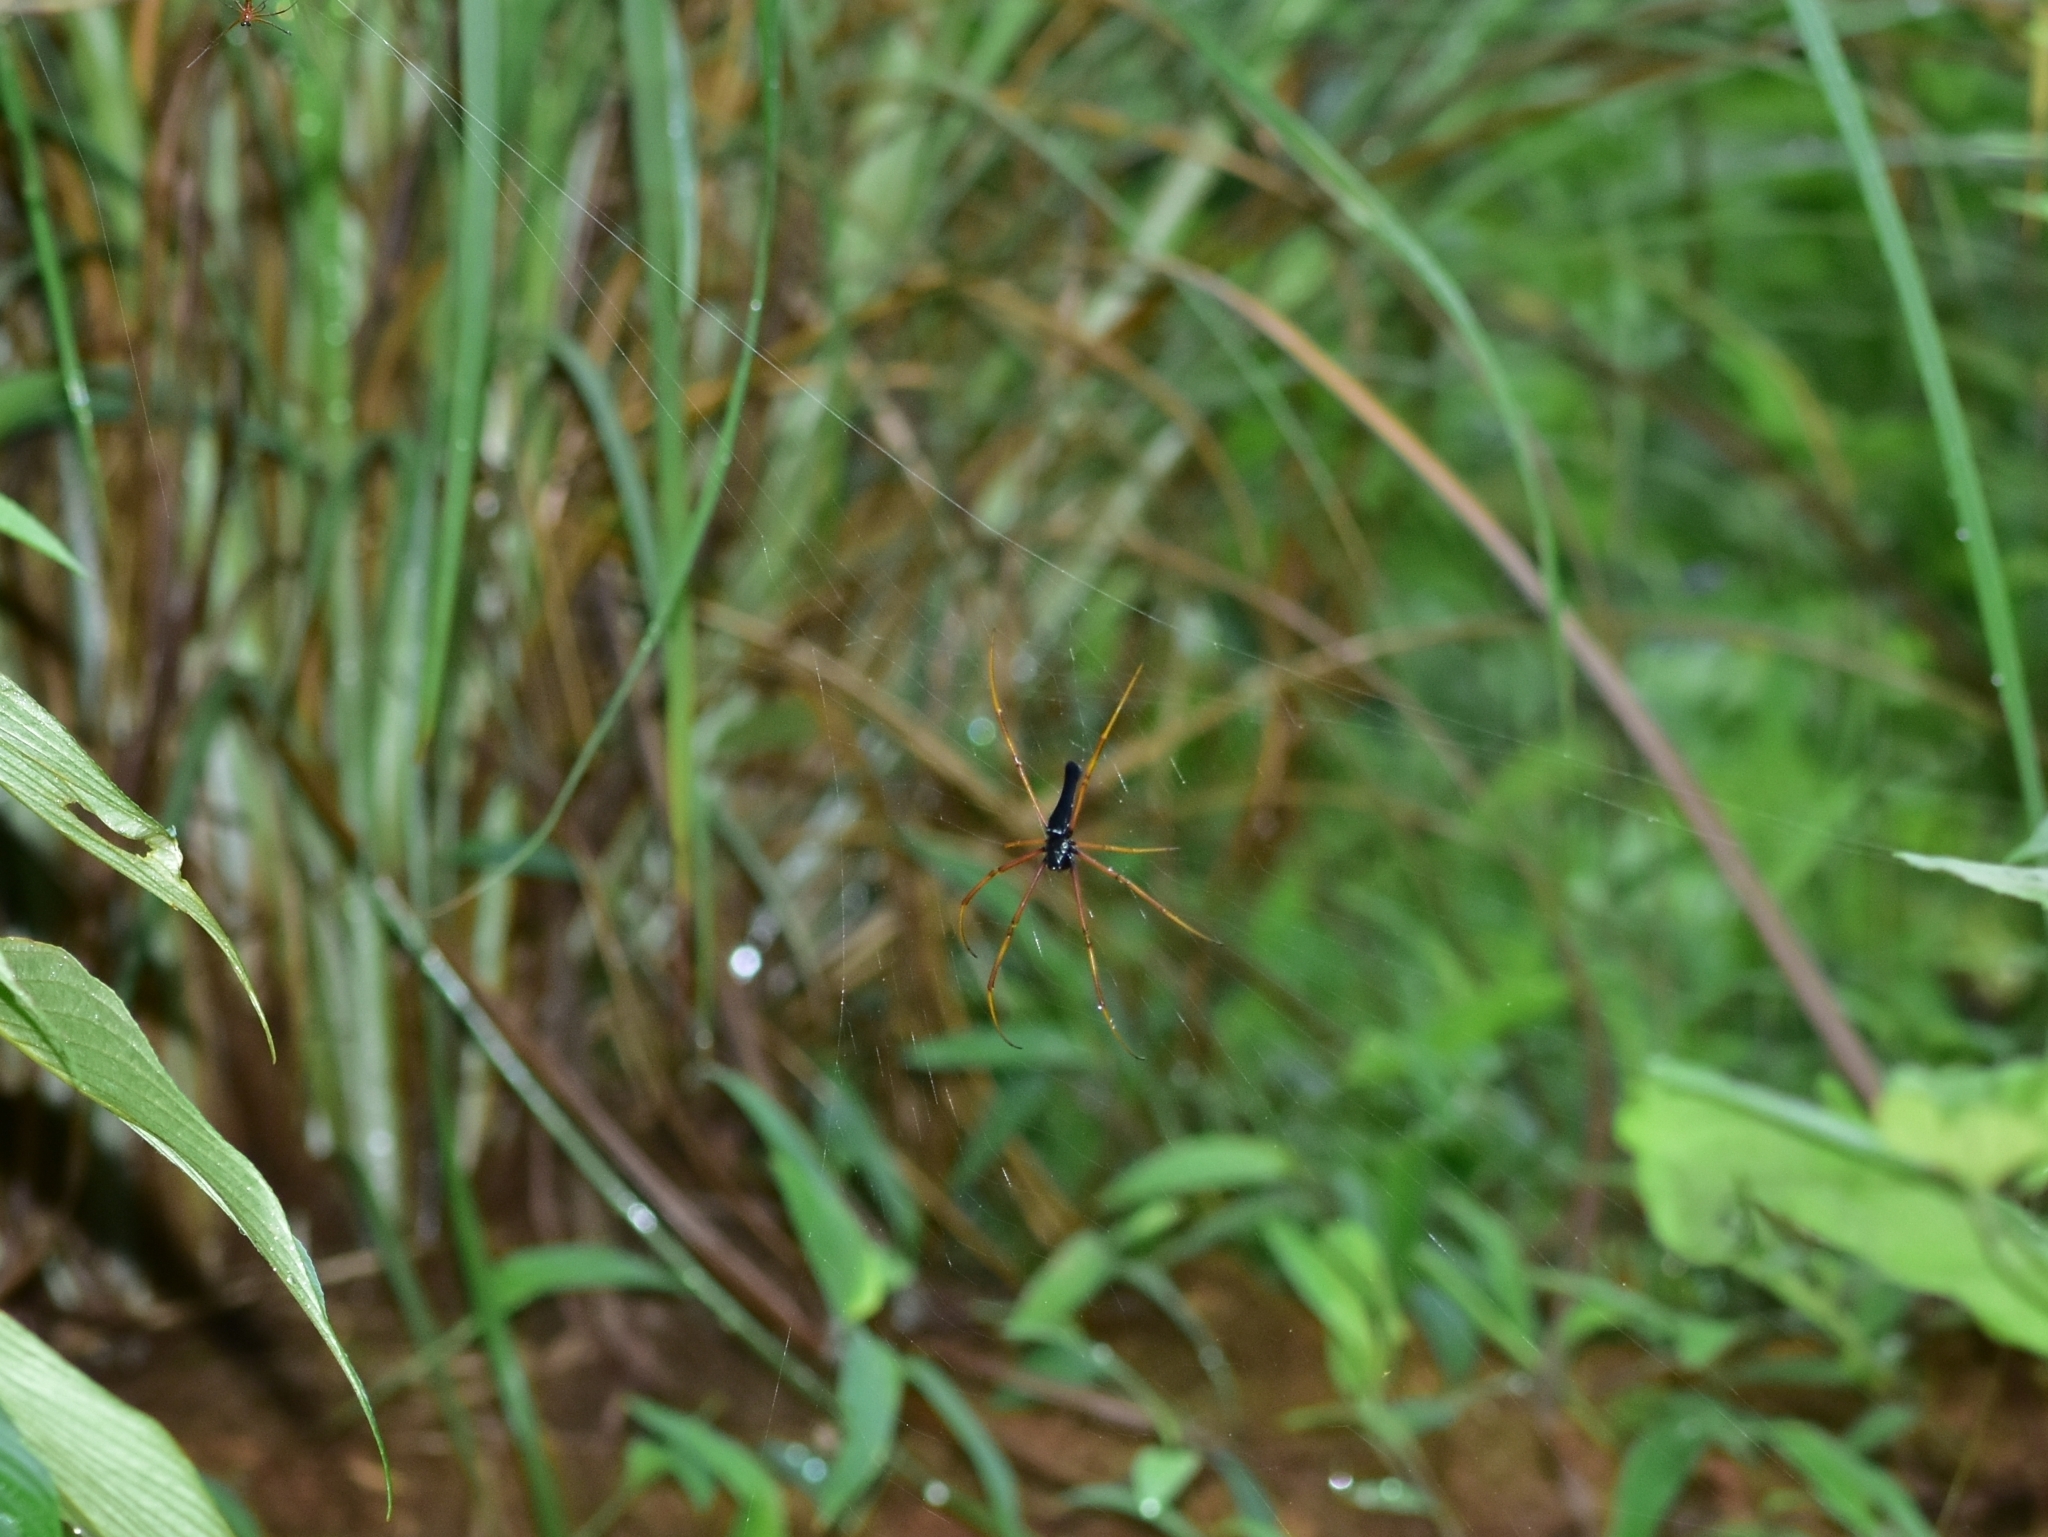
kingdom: Animalia
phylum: Arthropoda
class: Arachnida
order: Araneae
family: Araneidae
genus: Nephila
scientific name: Nephila kuhli
